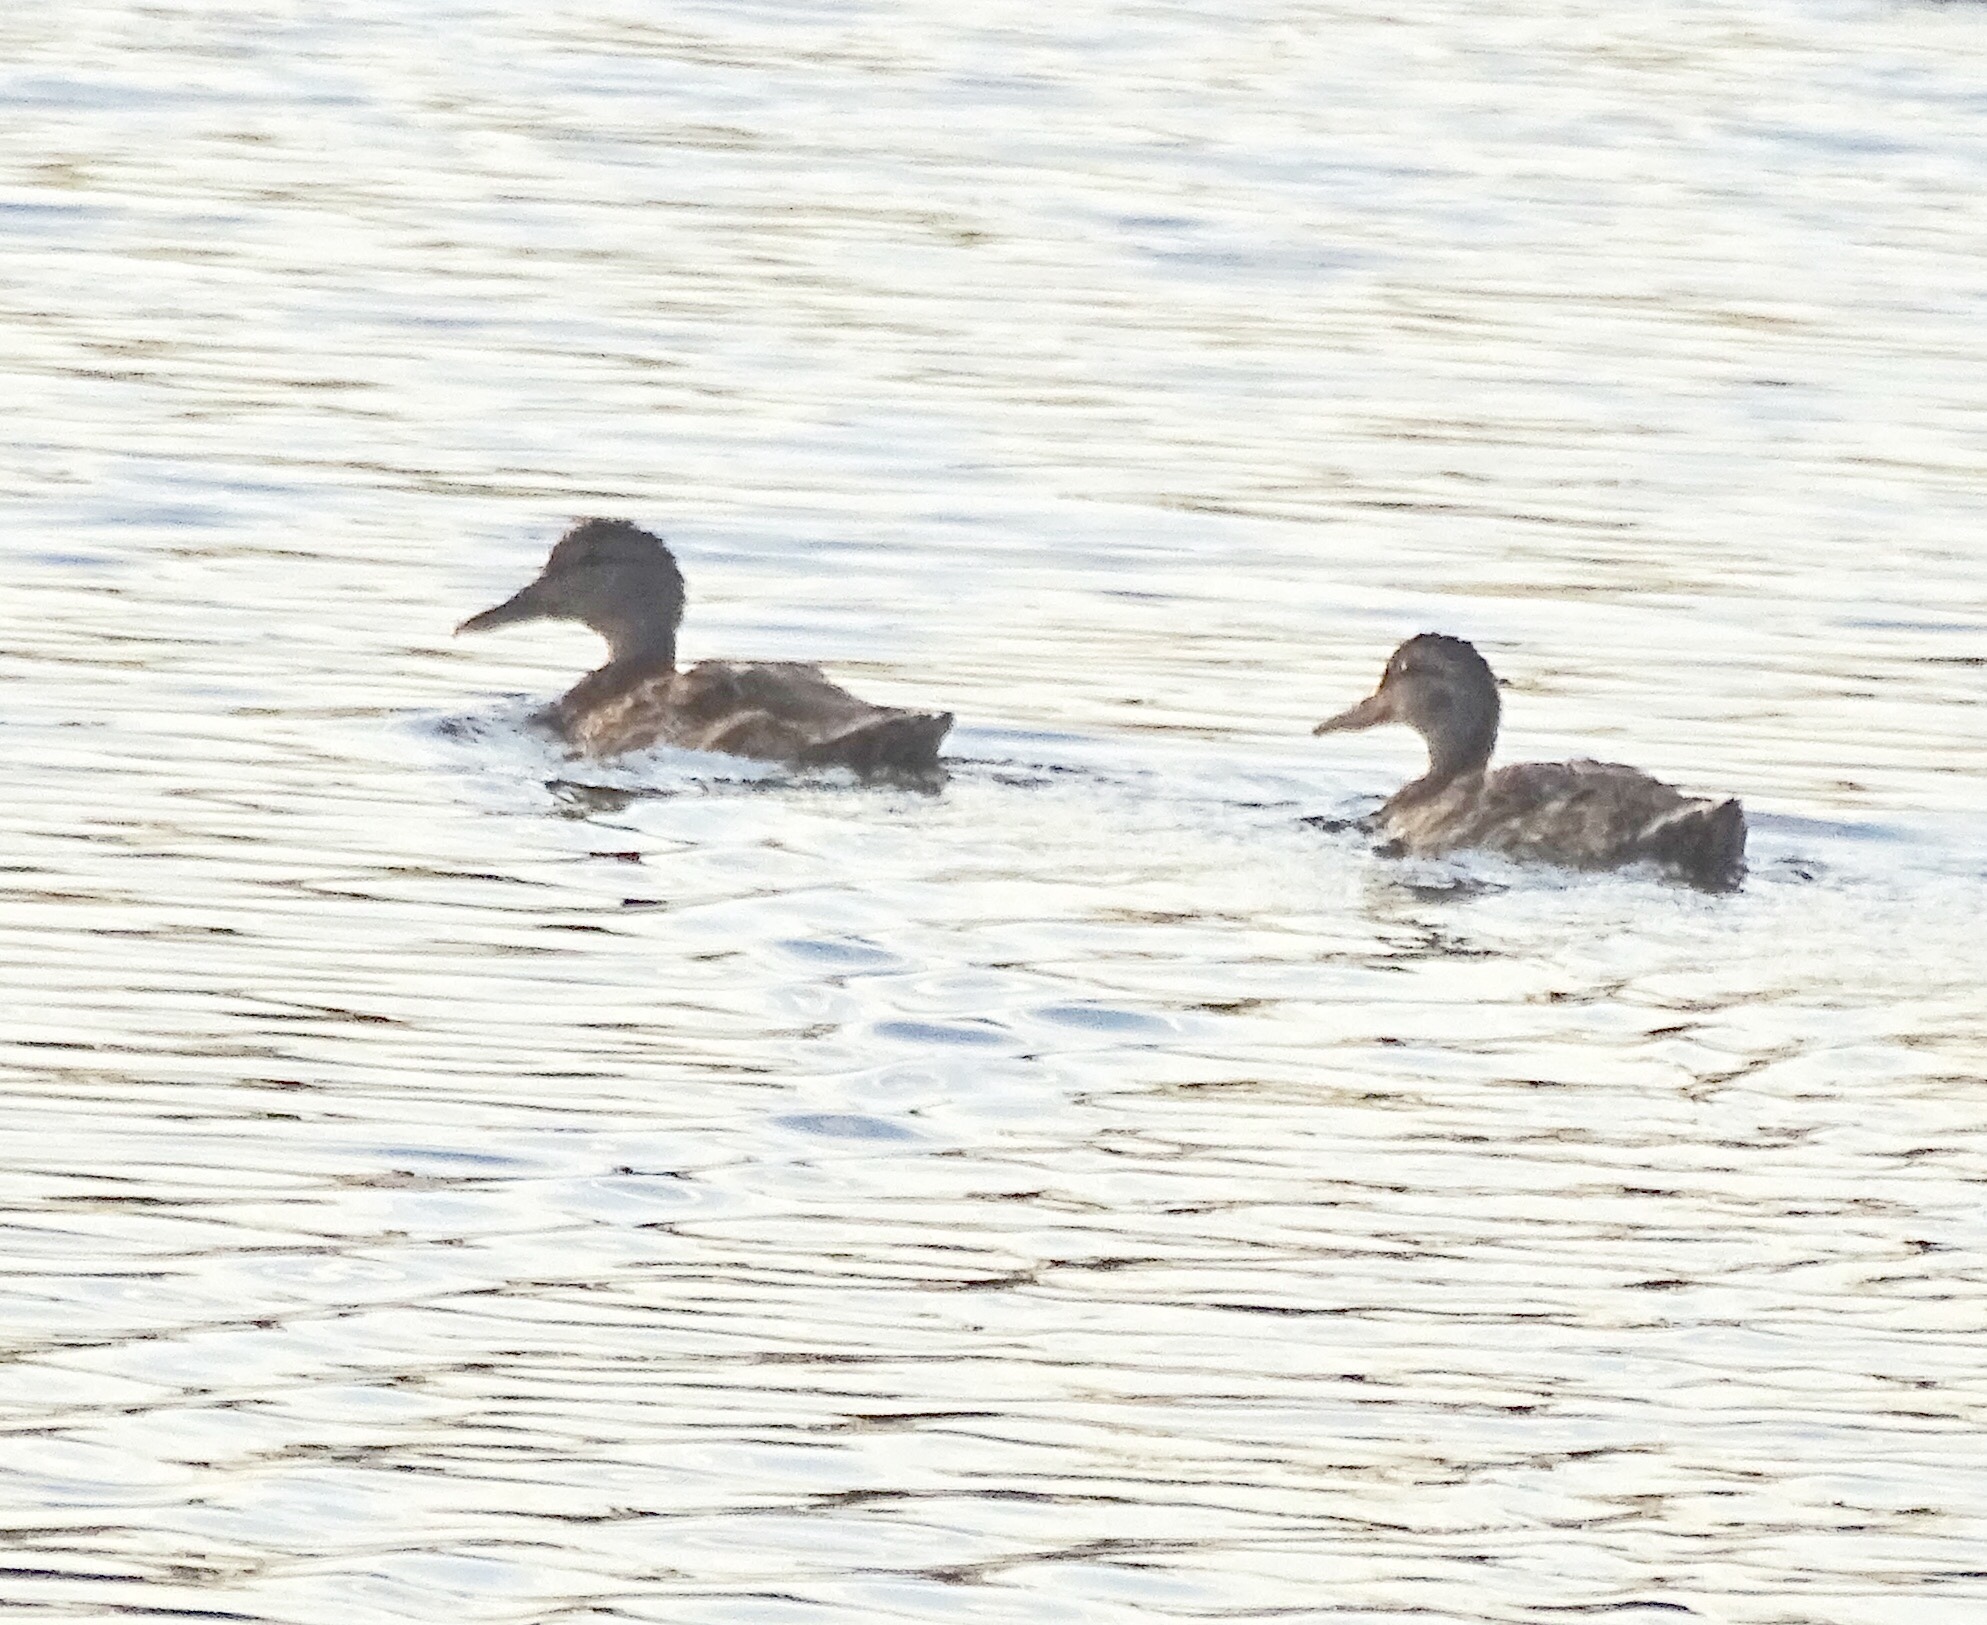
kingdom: Animalia
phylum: Chordata
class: Aves
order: Anseriformes
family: Anatidae
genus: Anas
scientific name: Anas platyrhynchos
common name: Mallard
